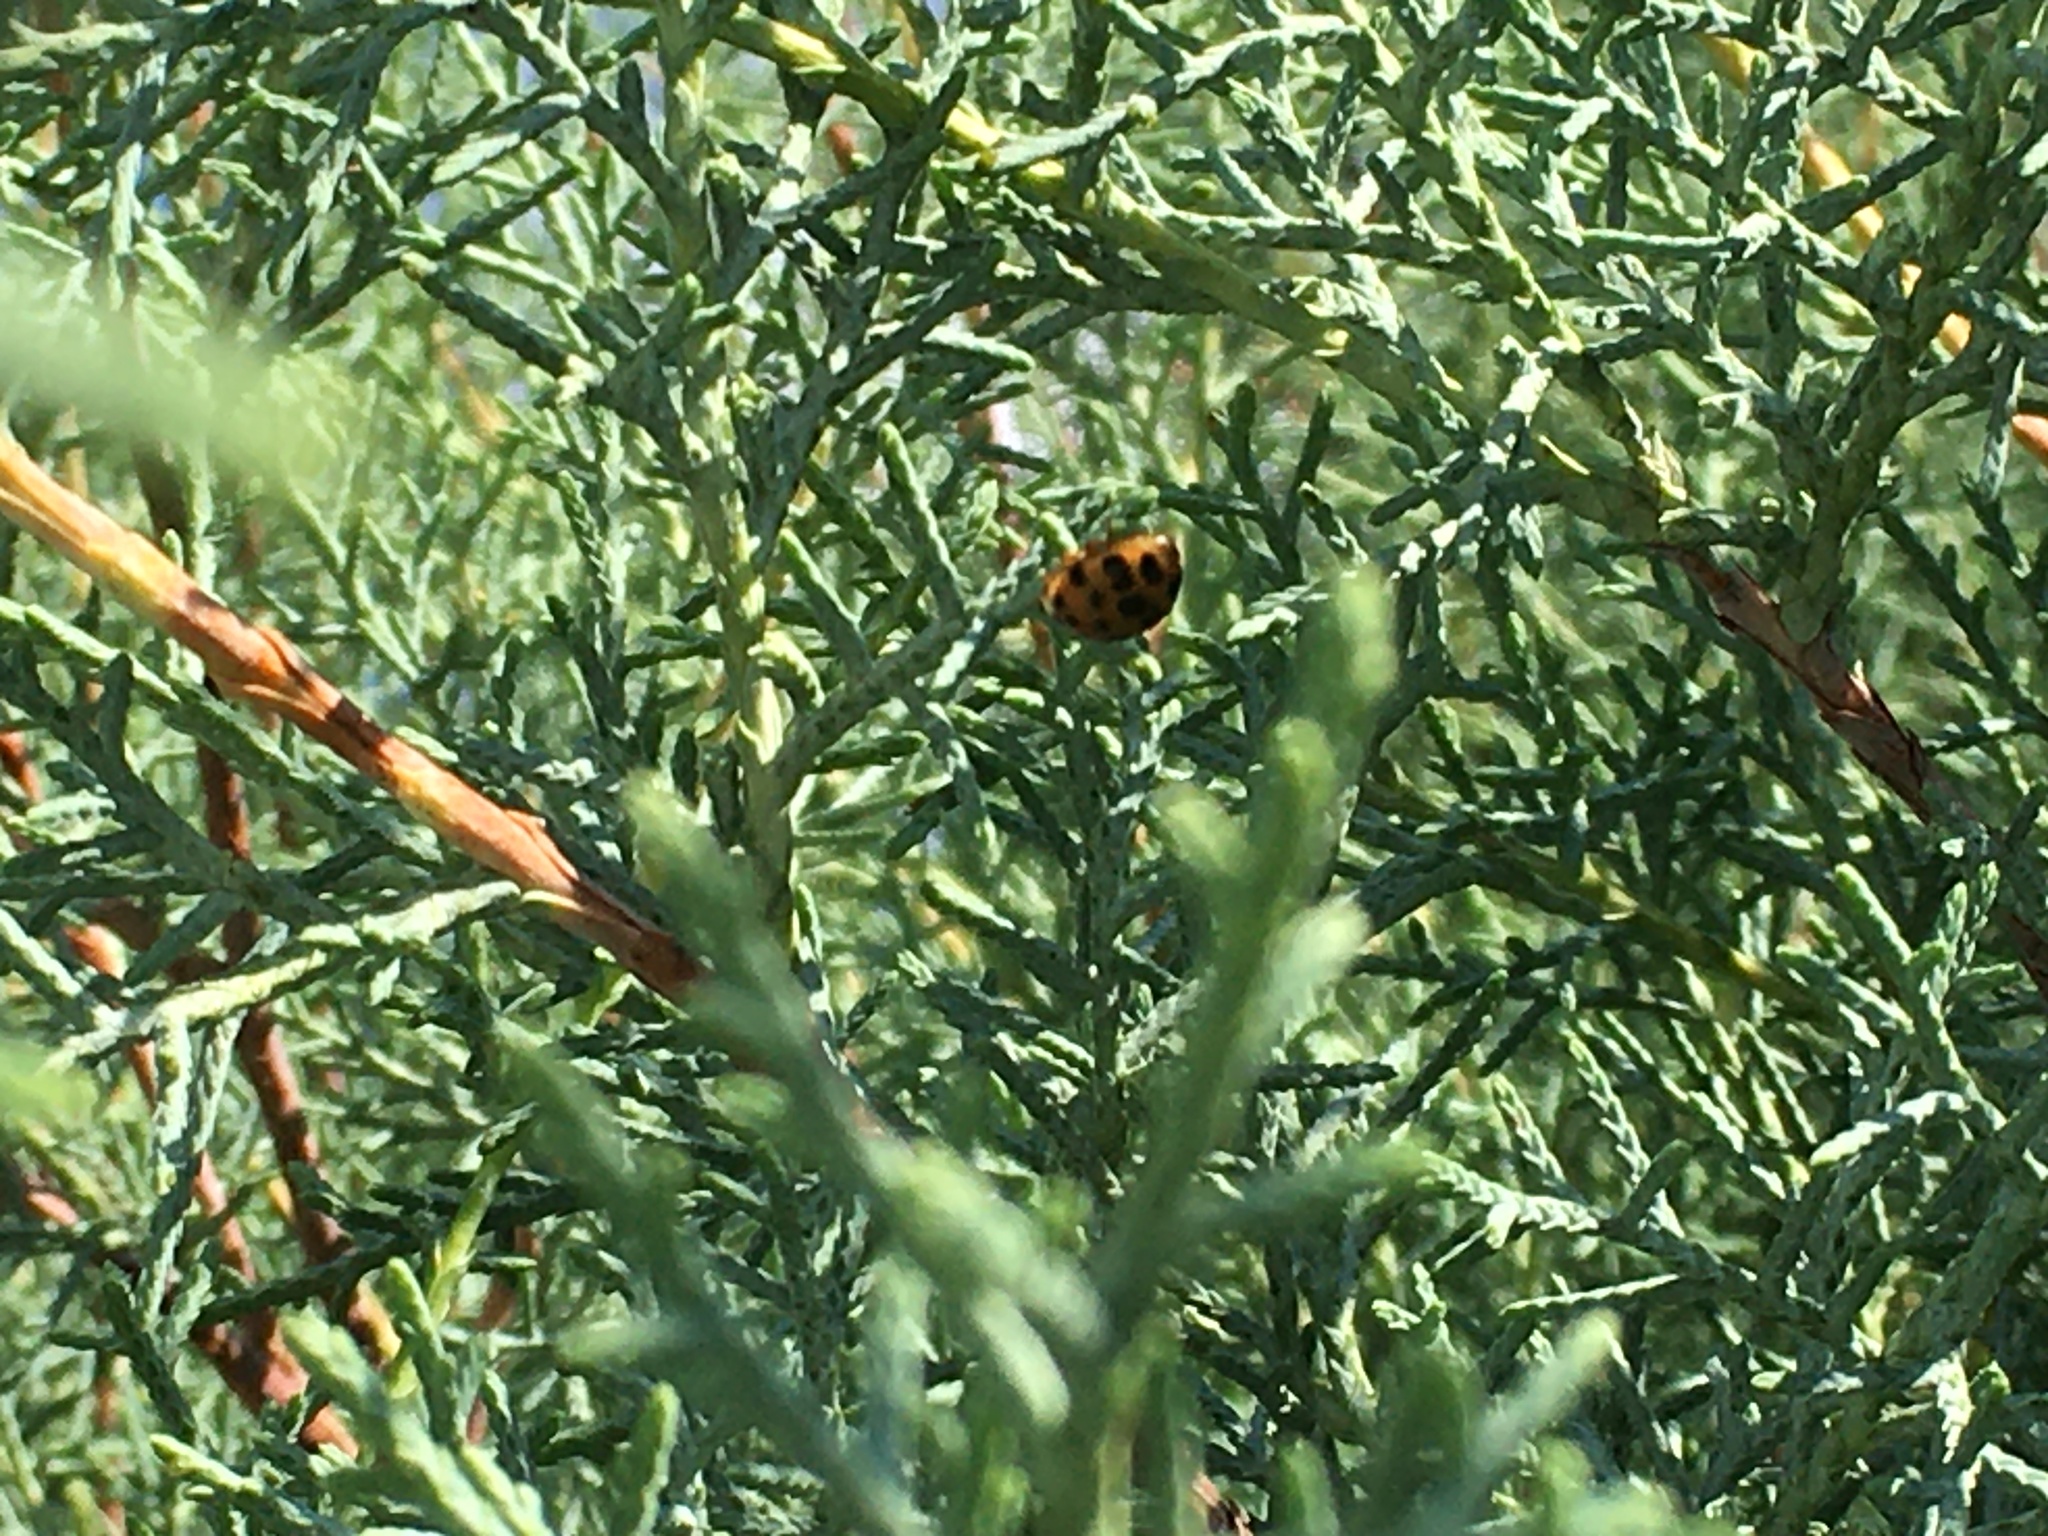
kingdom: Animalia
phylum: Arthropoda
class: Insecta
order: Coleoptera
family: Coccinellidae
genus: Harmonia
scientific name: Harmonia axyridis
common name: Harlequin ladybird
